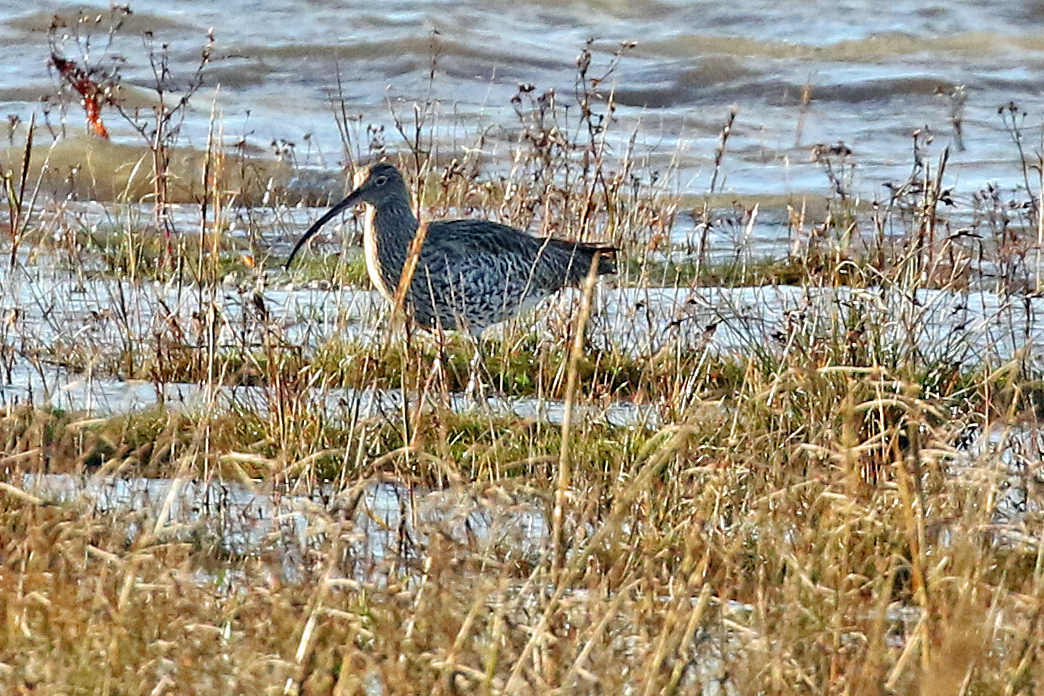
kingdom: Animalia
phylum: Chordata
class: Aves
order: Charadriiformes
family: Scolopacidae
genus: Numenius
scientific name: Numenius arquata
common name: Eurasian curlew
